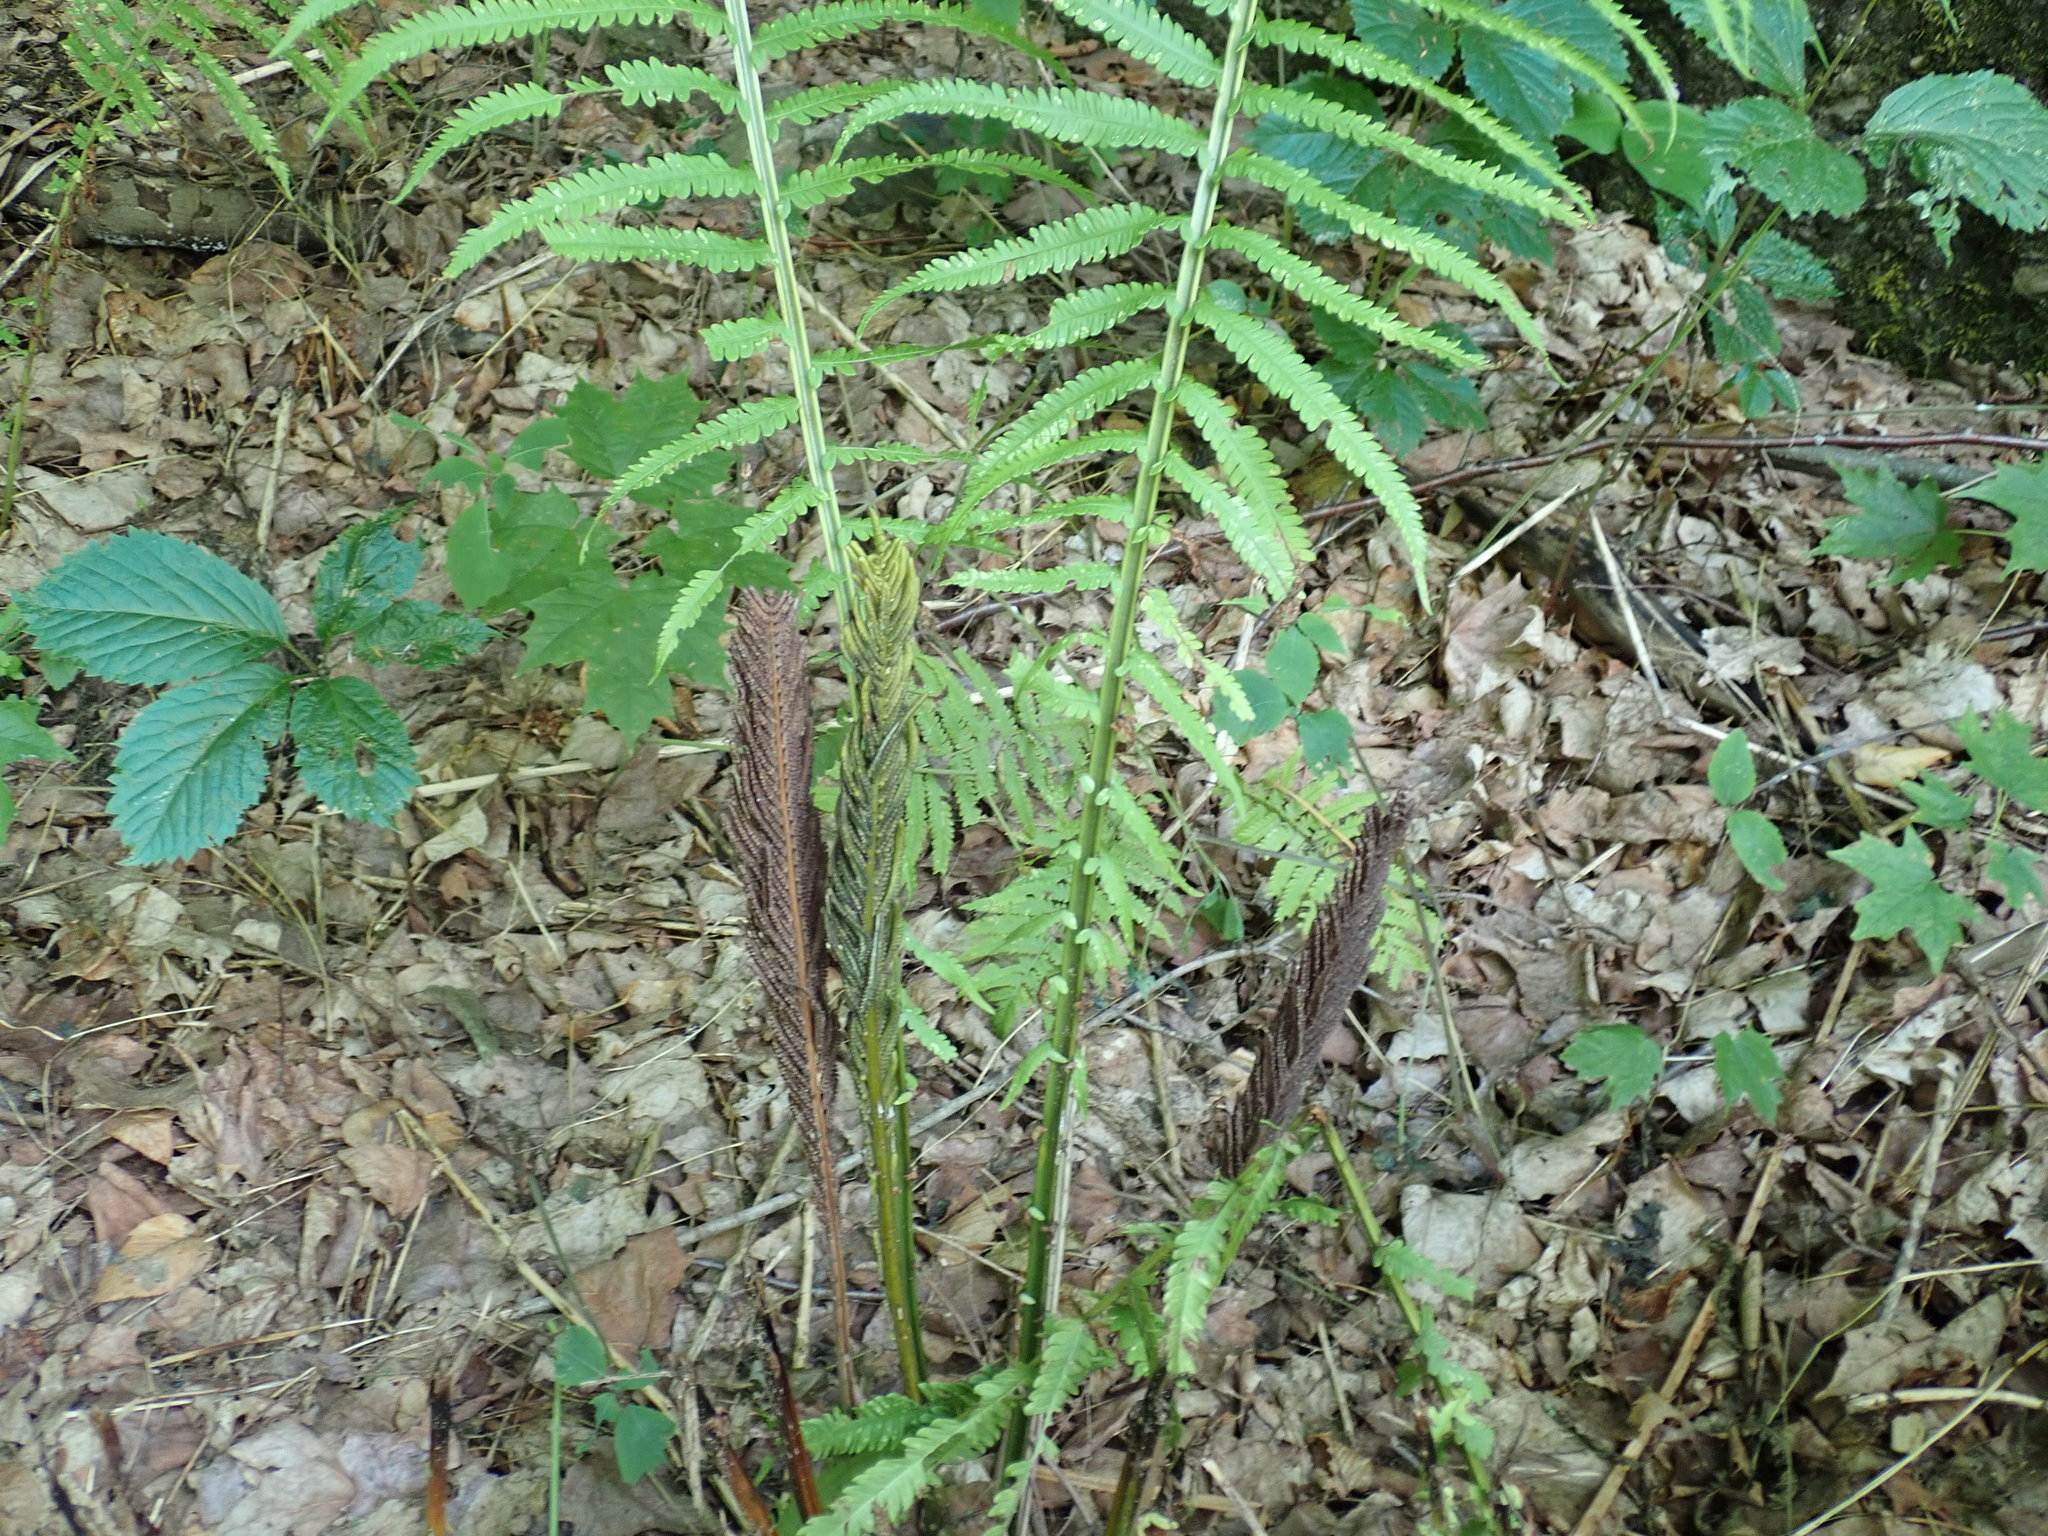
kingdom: Plantae
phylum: Tracheophyta
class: Polypodiopsida
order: Polypodiales
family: Onocleaceae
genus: Matteuccia
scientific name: Matteuccia struthiopteris
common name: Ostrich fern
